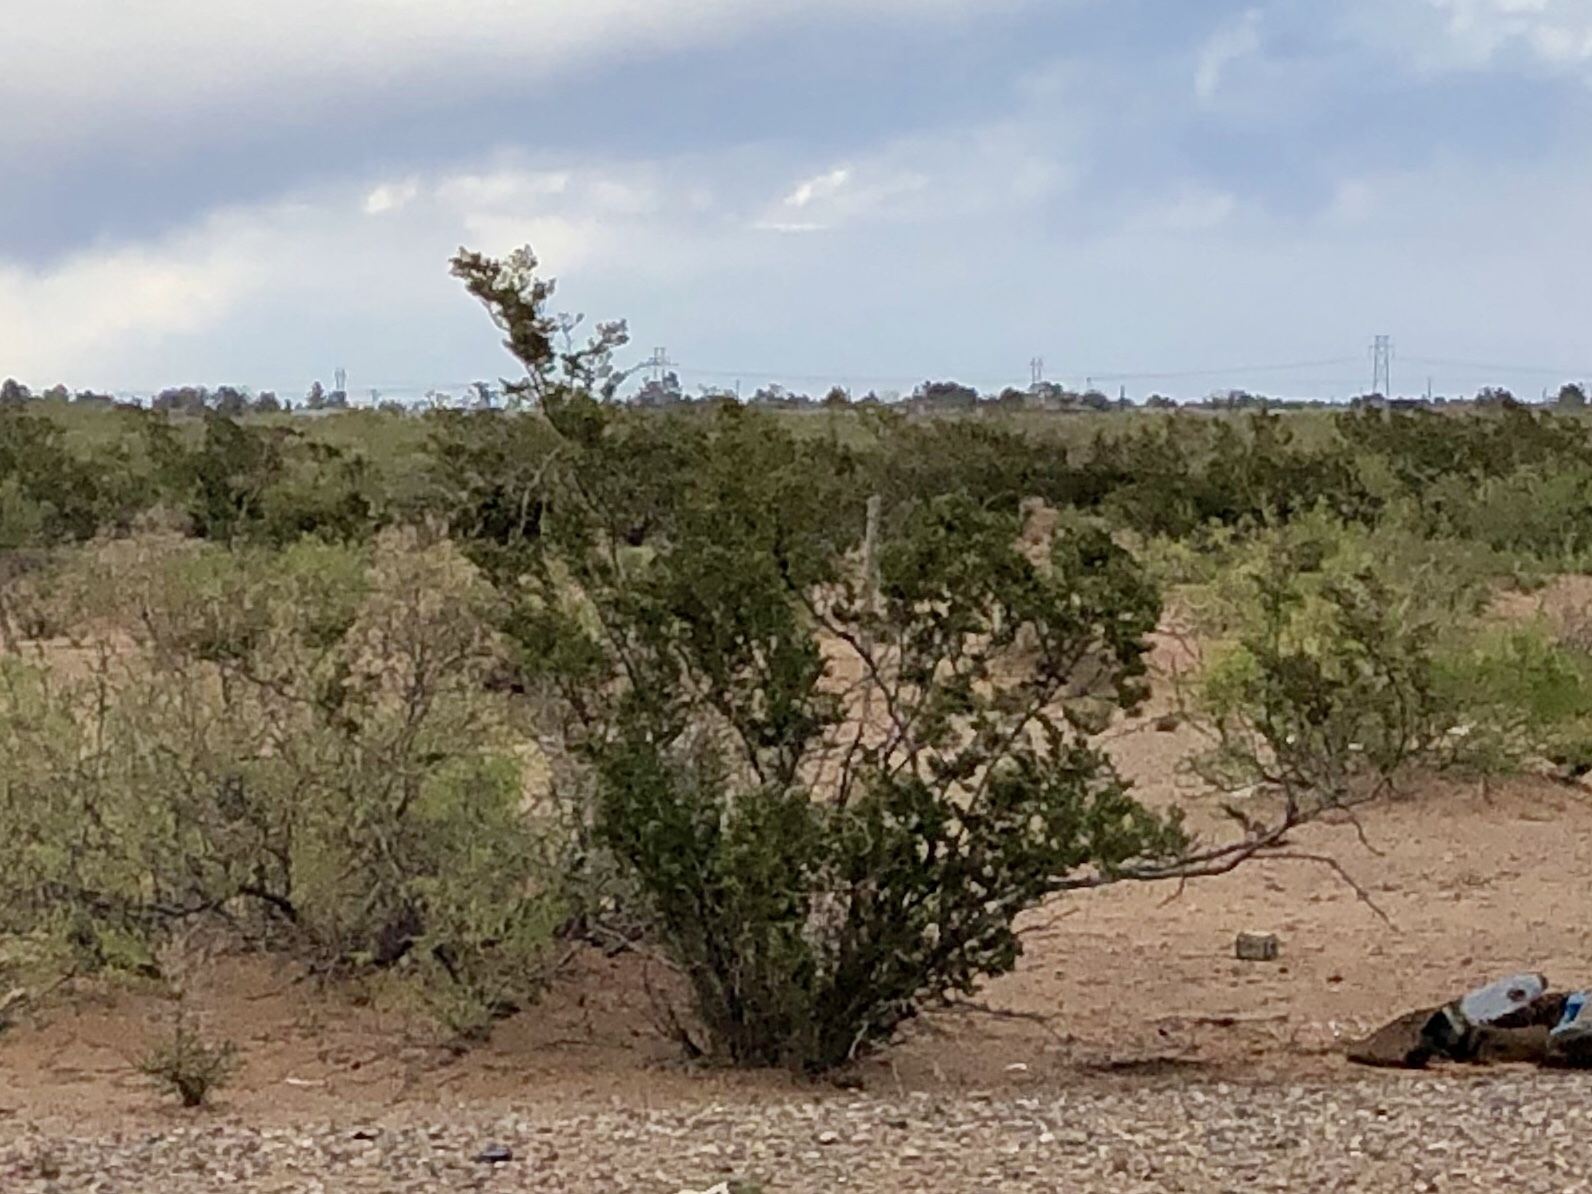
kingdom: Plantae
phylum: Tracheophyta
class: Magnoliopsida
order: Zygophyllales
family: Zygophyllaceae
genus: Larrea
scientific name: Larrea tridentata
